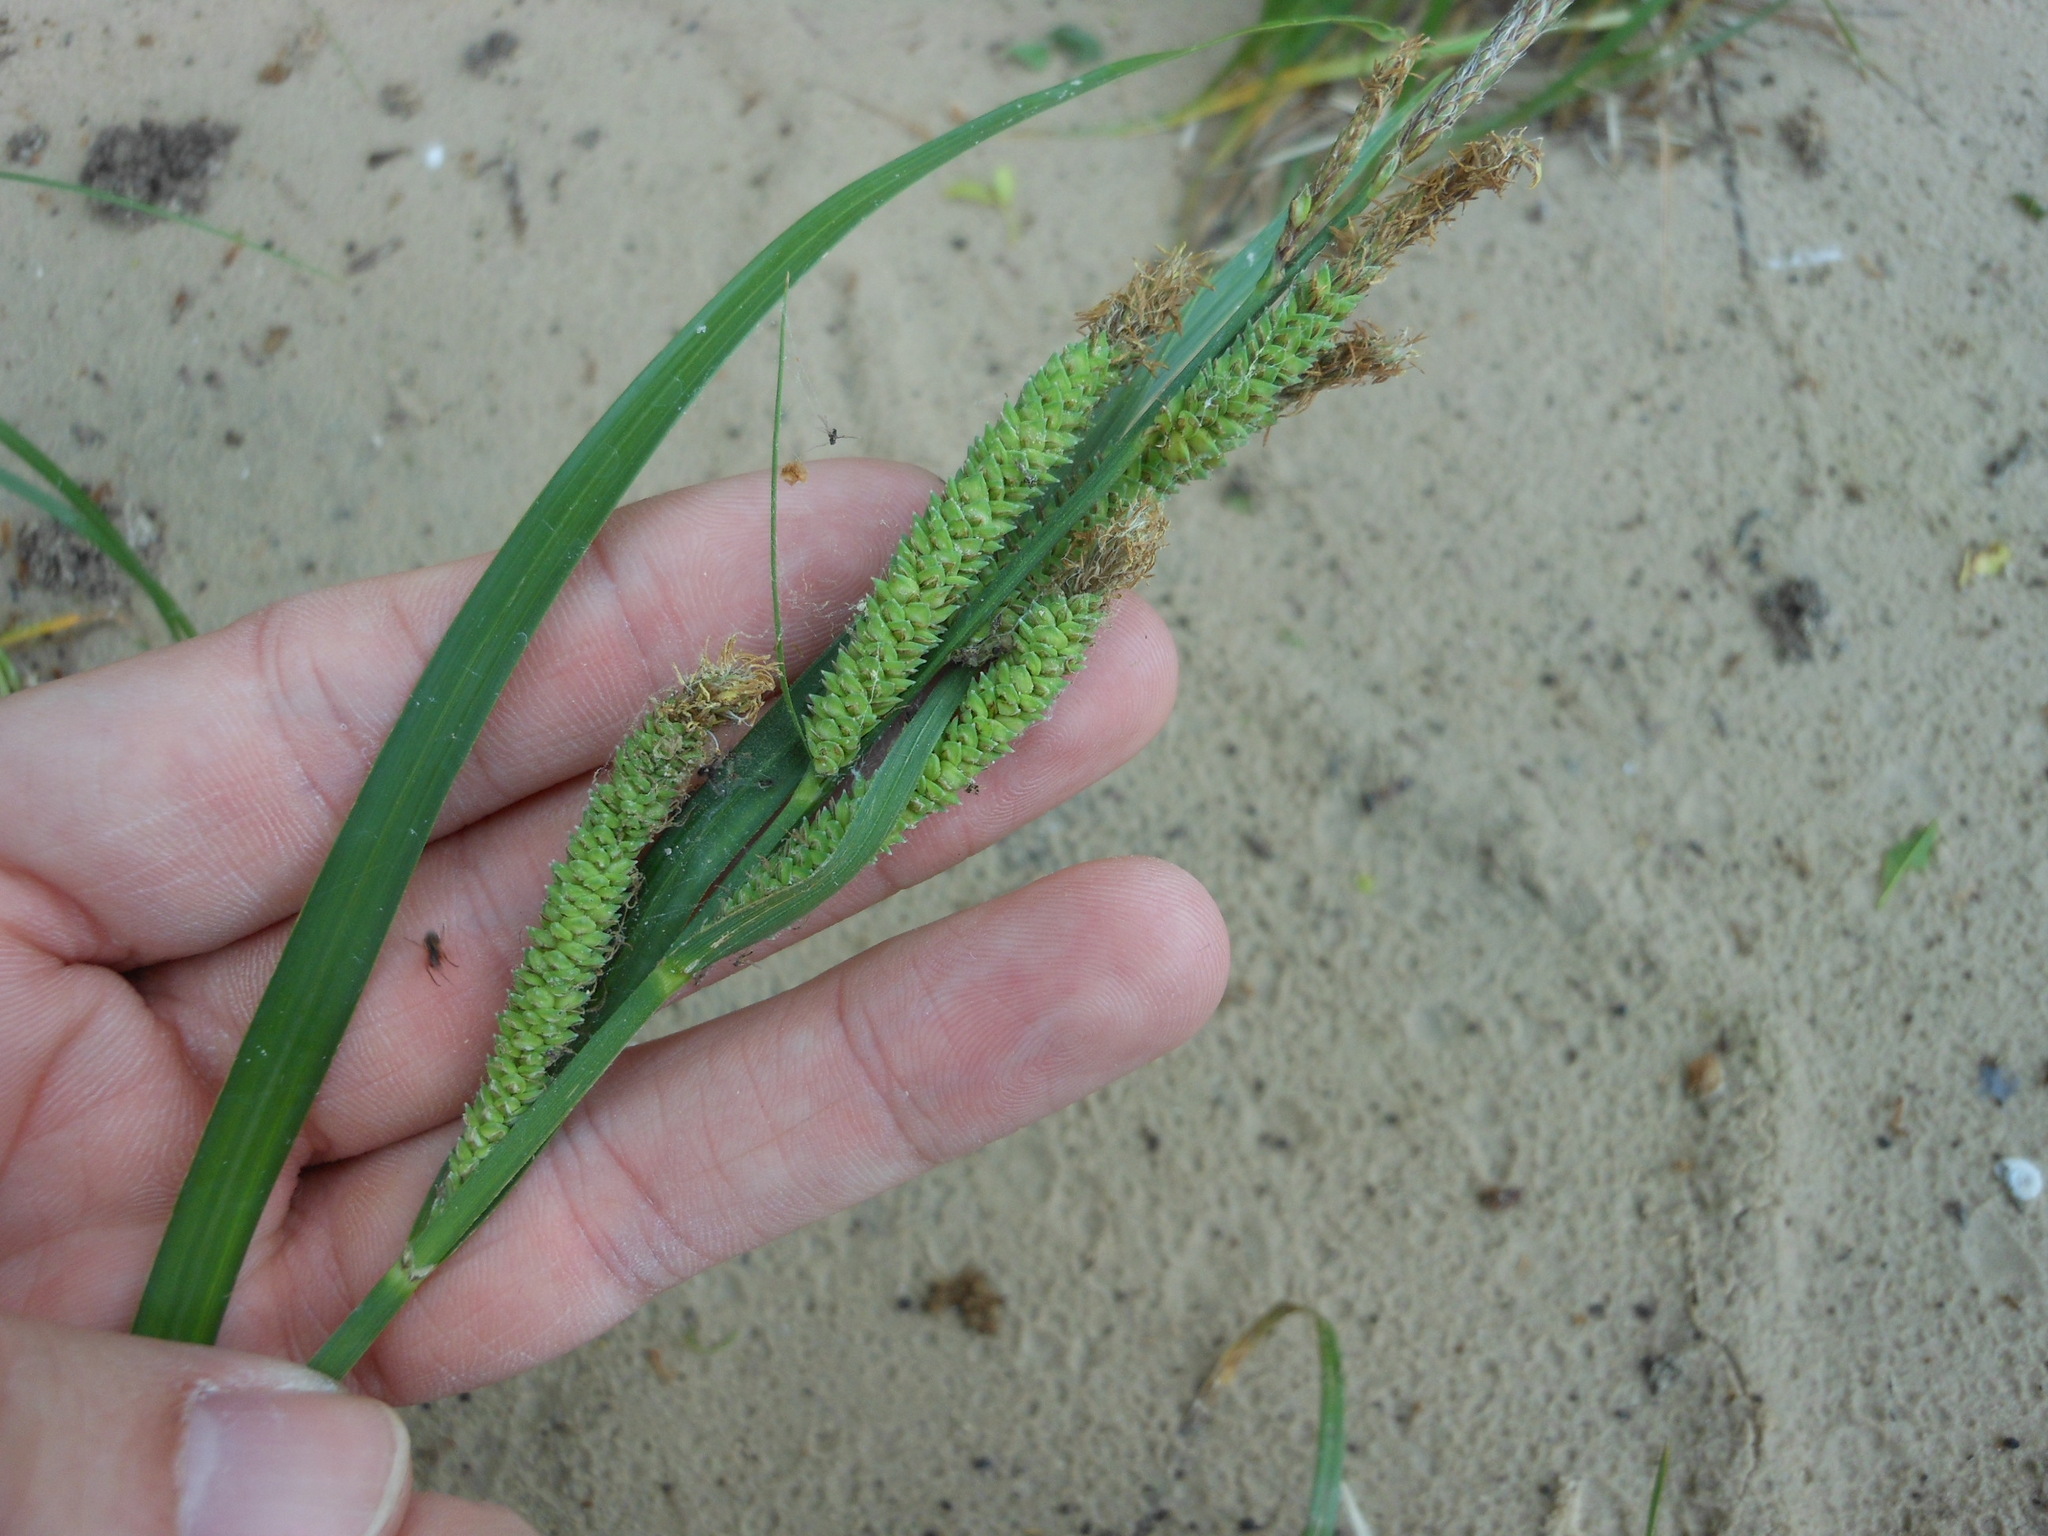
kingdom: Plantae
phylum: Tracheophyta
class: Liliopsida
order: Poales
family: Cyperaceae
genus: Carex
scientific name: Carex emoryi
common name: Emory's sedge
